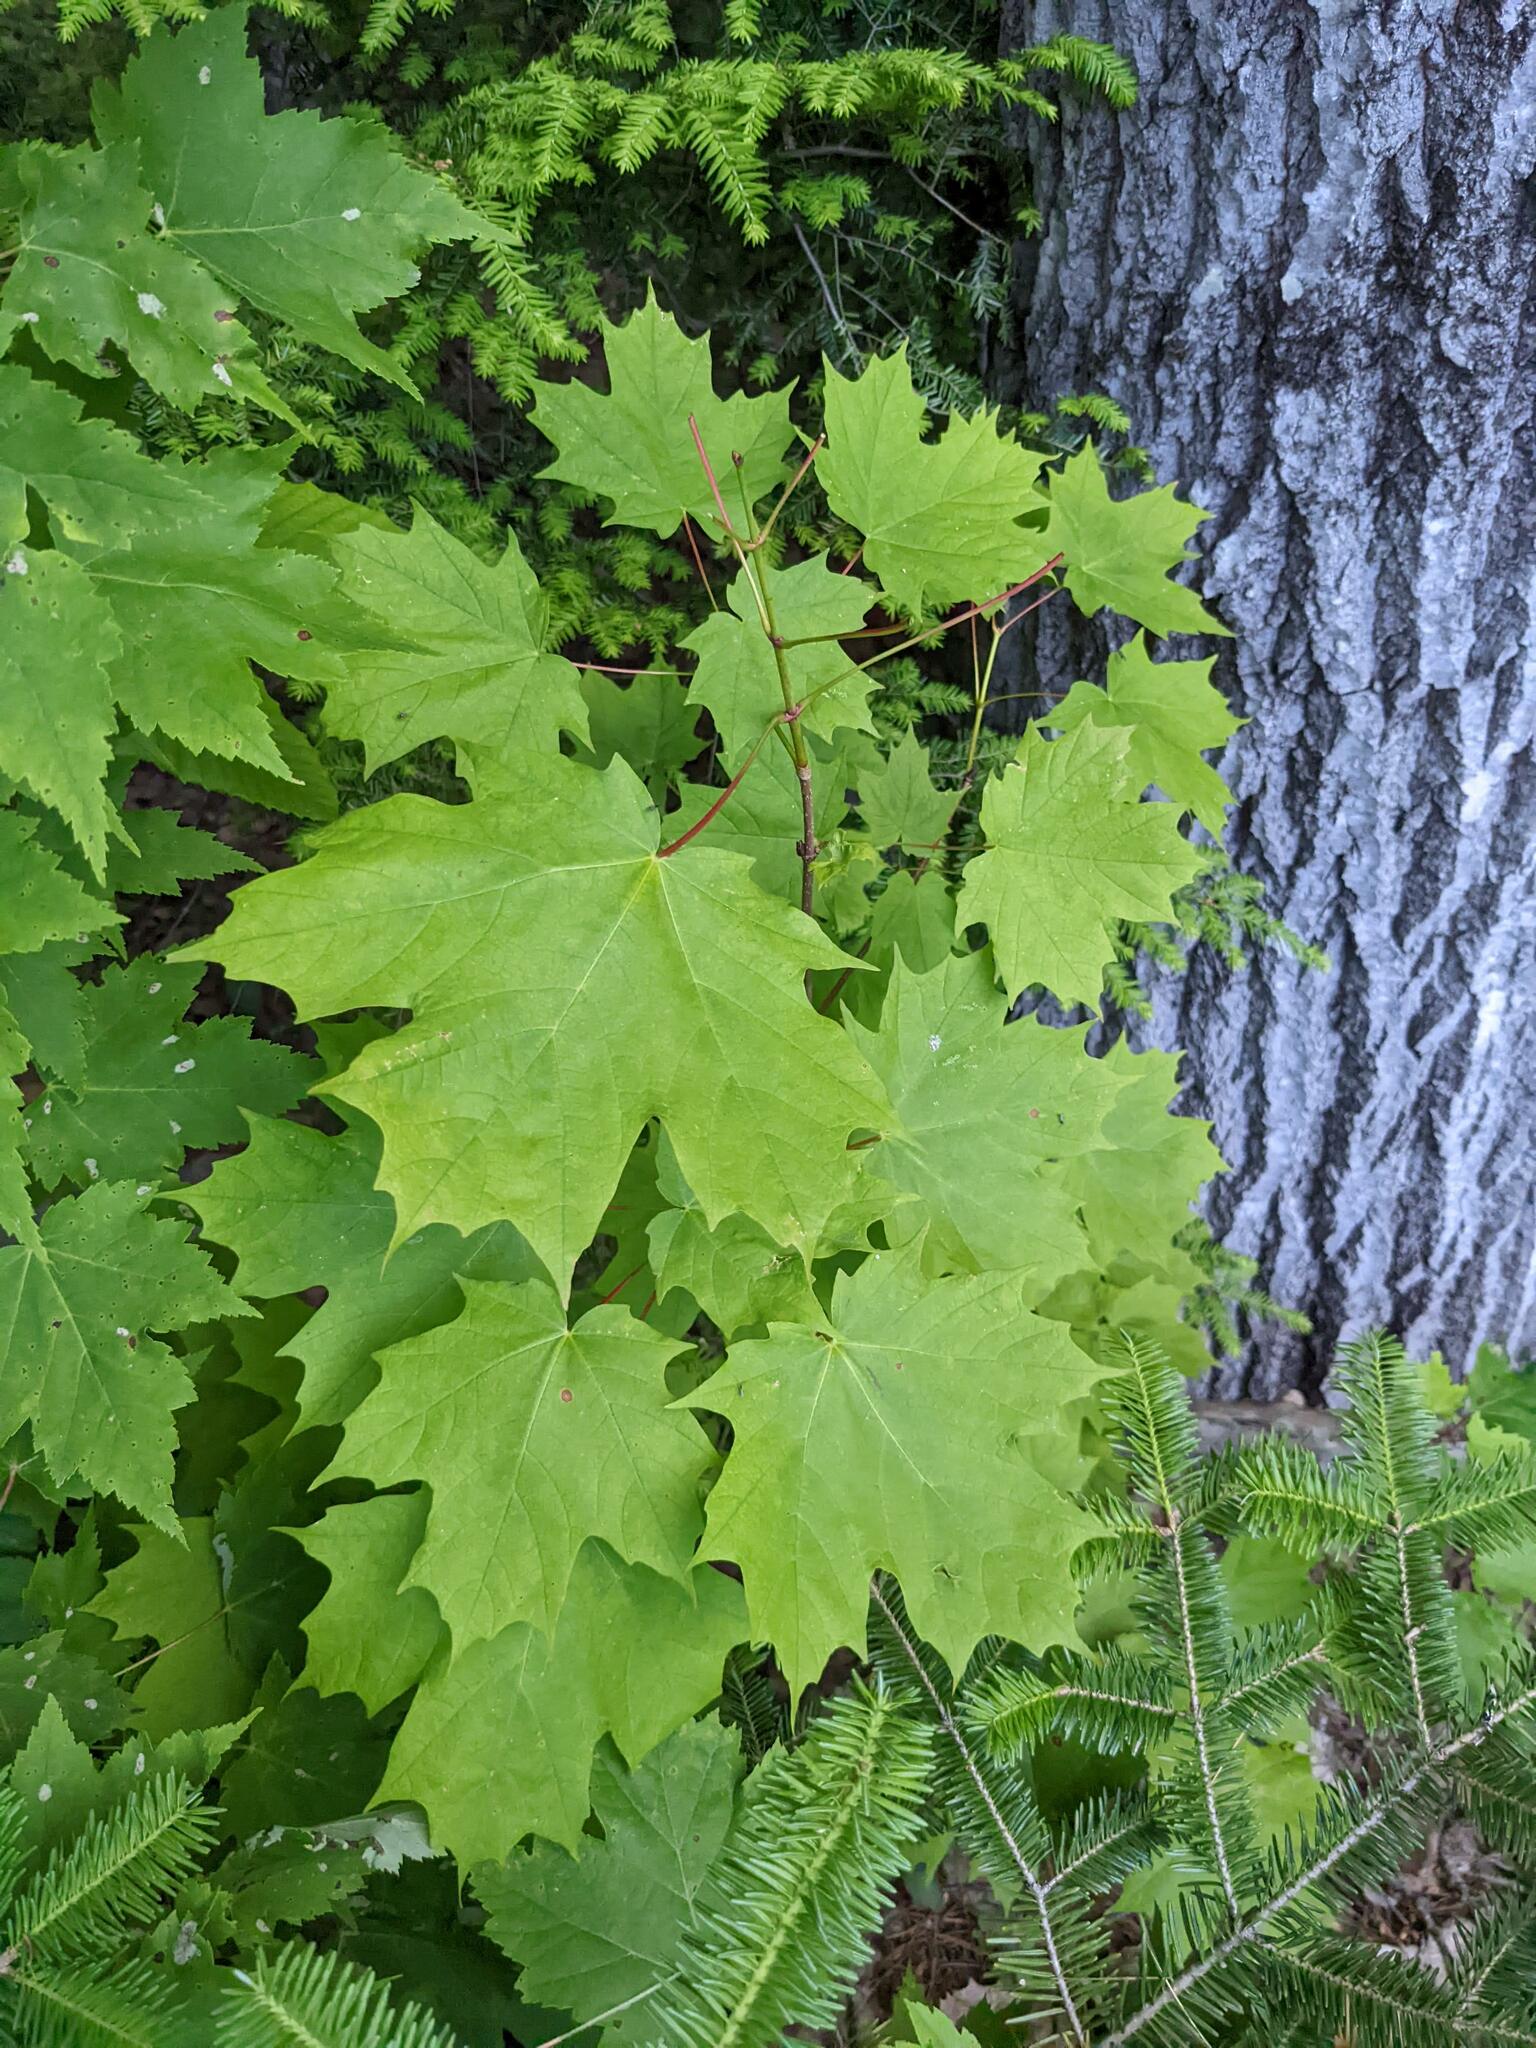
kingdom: Plantae
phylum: Tracheophyta
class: Magnoliopsida
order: Sapindales
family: Sapindaceae
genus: Acer
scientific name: Acer saccharum
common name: Sugar maple
